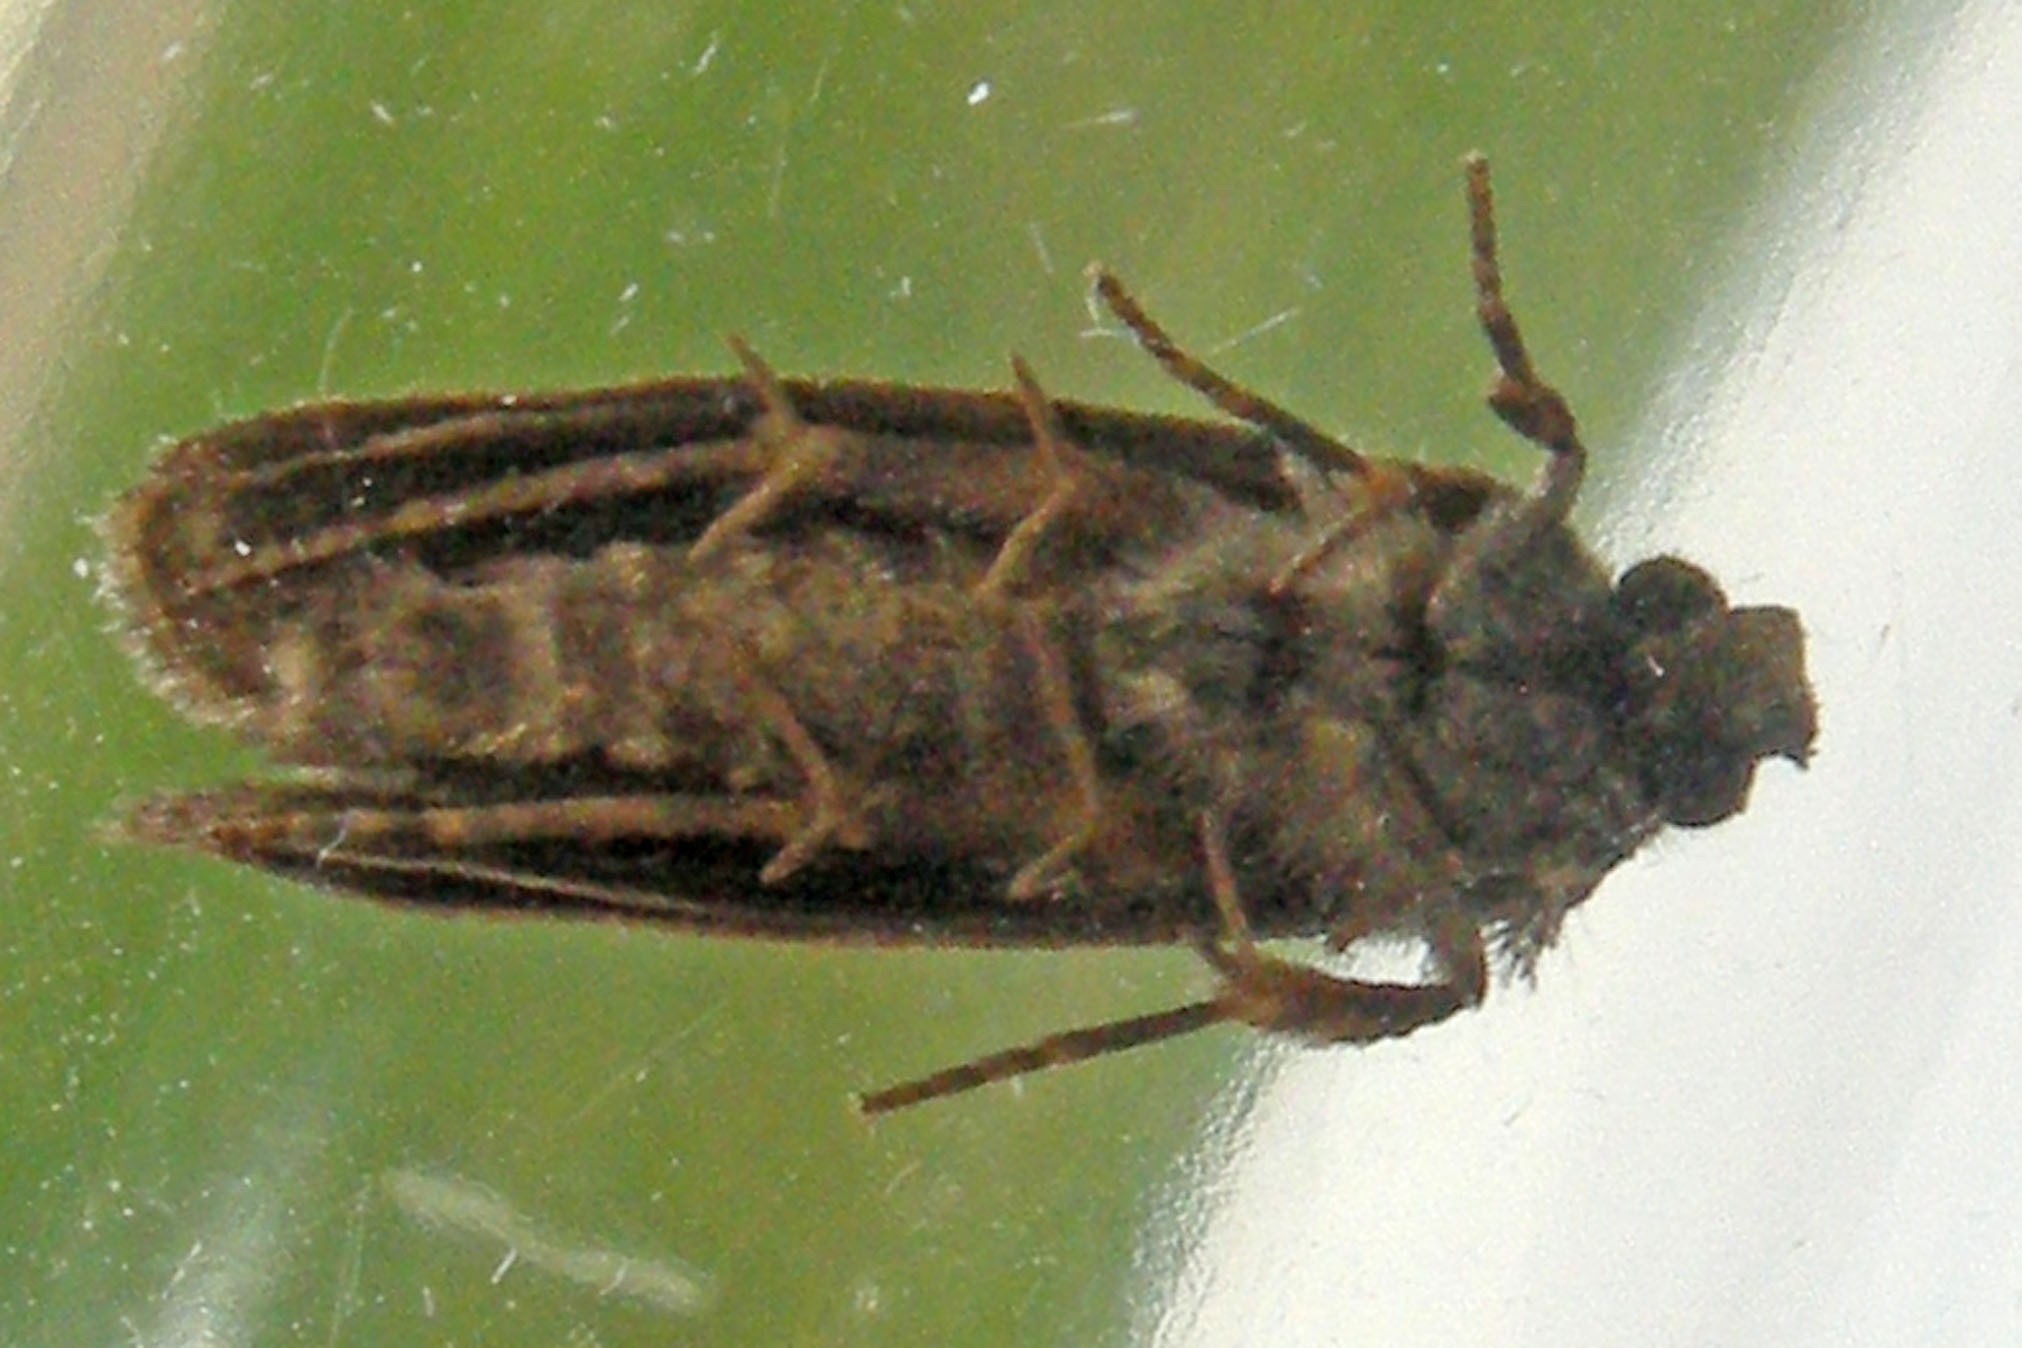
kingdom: Animalia
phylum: Arthropoda
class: Insecta
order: Lepidoptera
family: Tineidae
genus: Acrolophus
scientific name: Acrolophus popeanella
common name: Clemens' grass tubeworm moth
